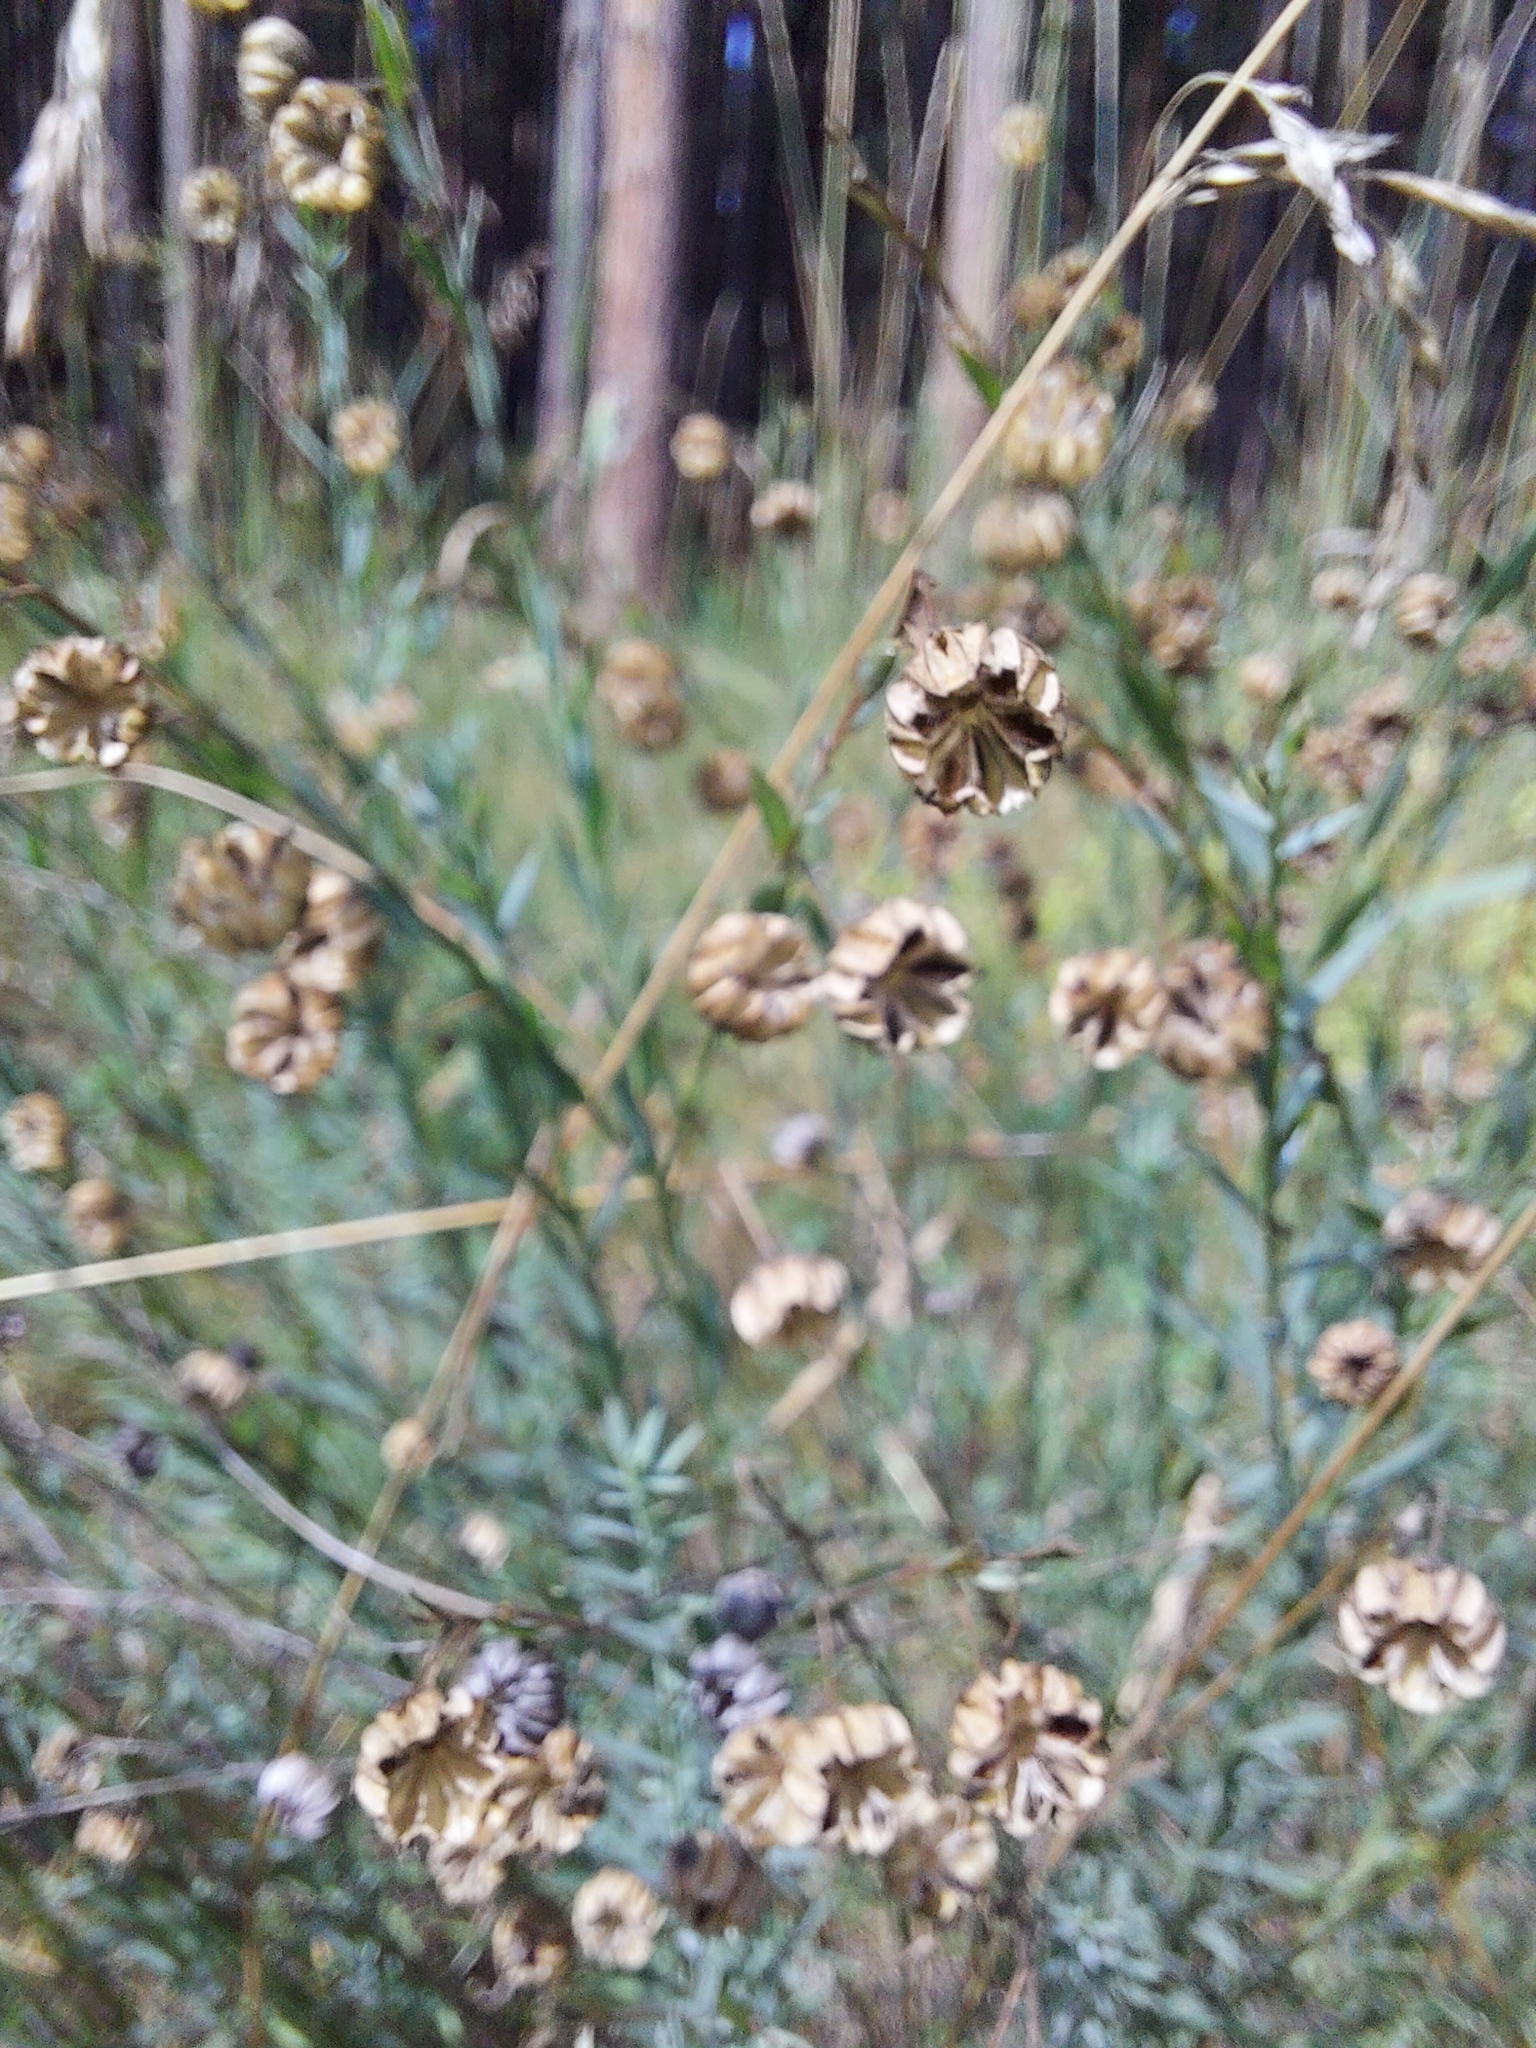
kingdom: Plantae
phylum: Tracheophyta
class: Magnoliopsida
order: Malpighiales
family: Linaceae
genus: Linum
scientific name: Linum usitatissimum
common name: Flax
